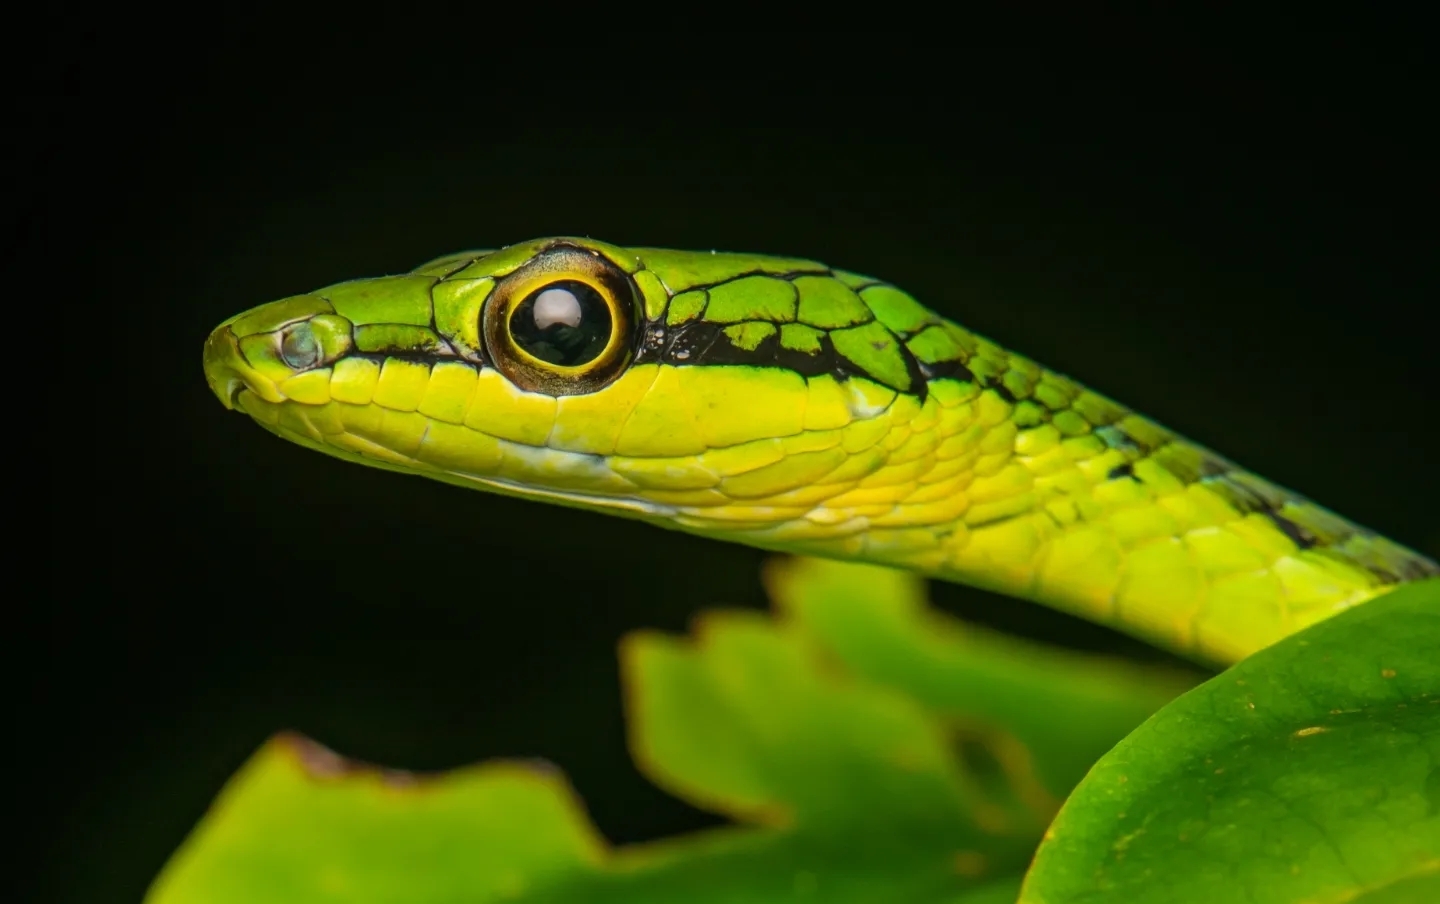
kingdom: Animalia
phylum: Chordata
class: Squamata
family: Colubridae
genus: Dendrelaphis
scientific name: Dendrelaphis andamanensis
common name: Andaman bronze-back
